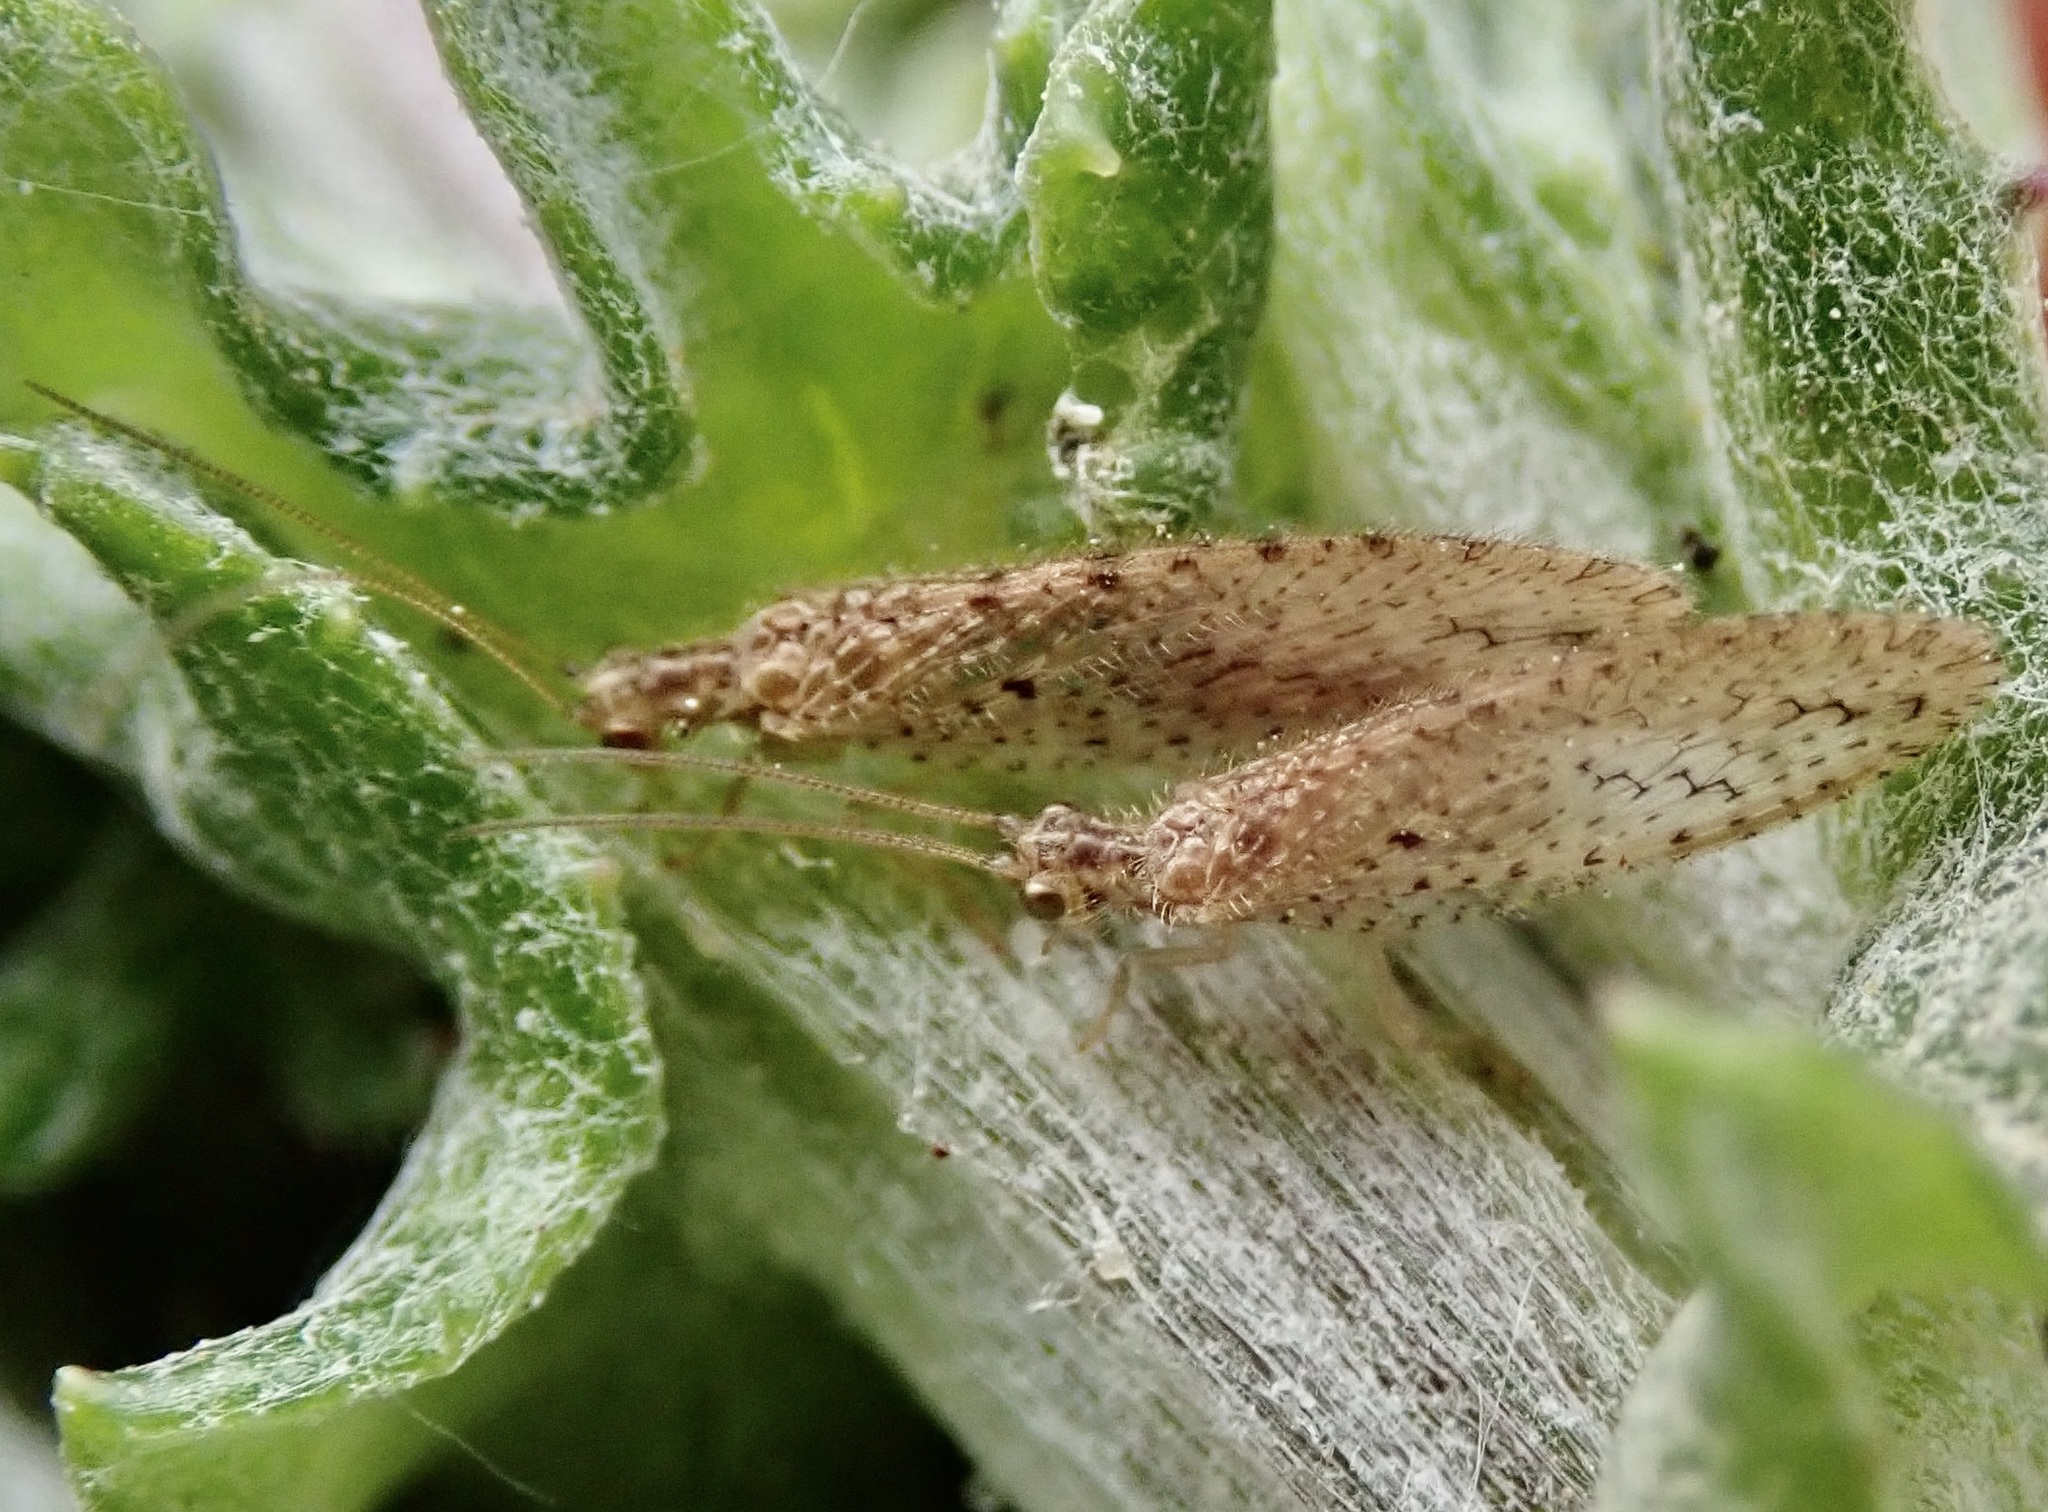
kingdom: Animalia
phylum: Arthropoda
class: Insecta
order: Neuroptera
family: Hemerobiidae
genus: Micromus
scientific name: Micromus tasmaniae
